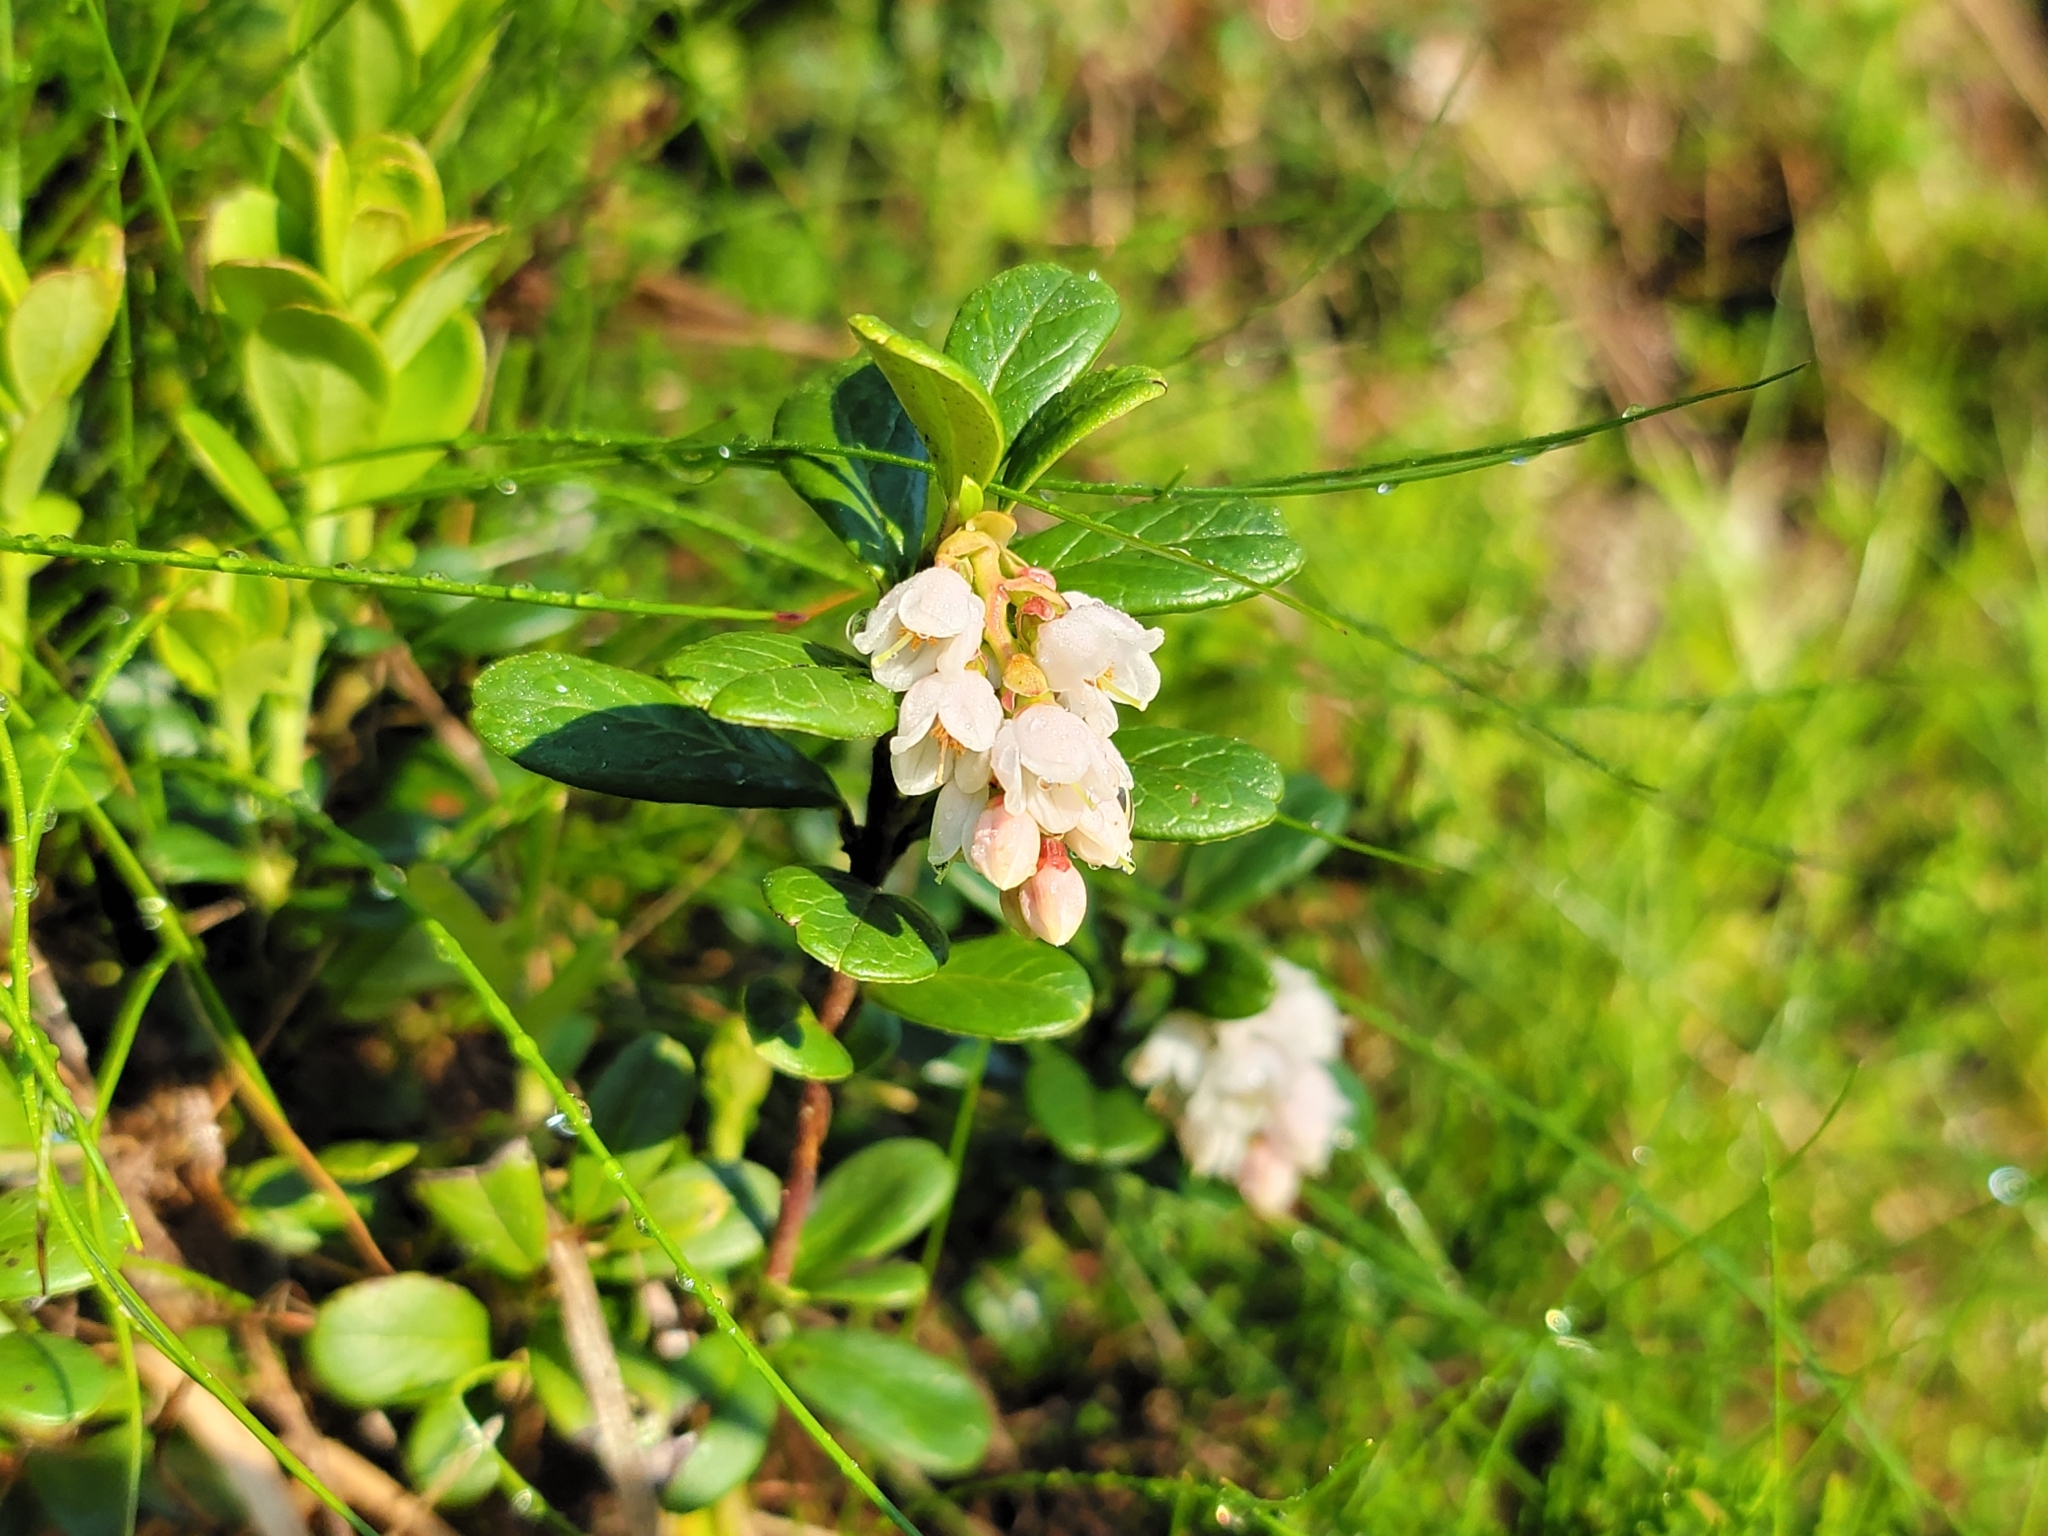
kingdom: Plantae
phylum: Tracheophyta
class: Magnoliopsida
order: Ericales
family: Ericaceae
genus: Vaccinium
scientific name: Vaccinium vitis-idaea
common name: Cowberry
